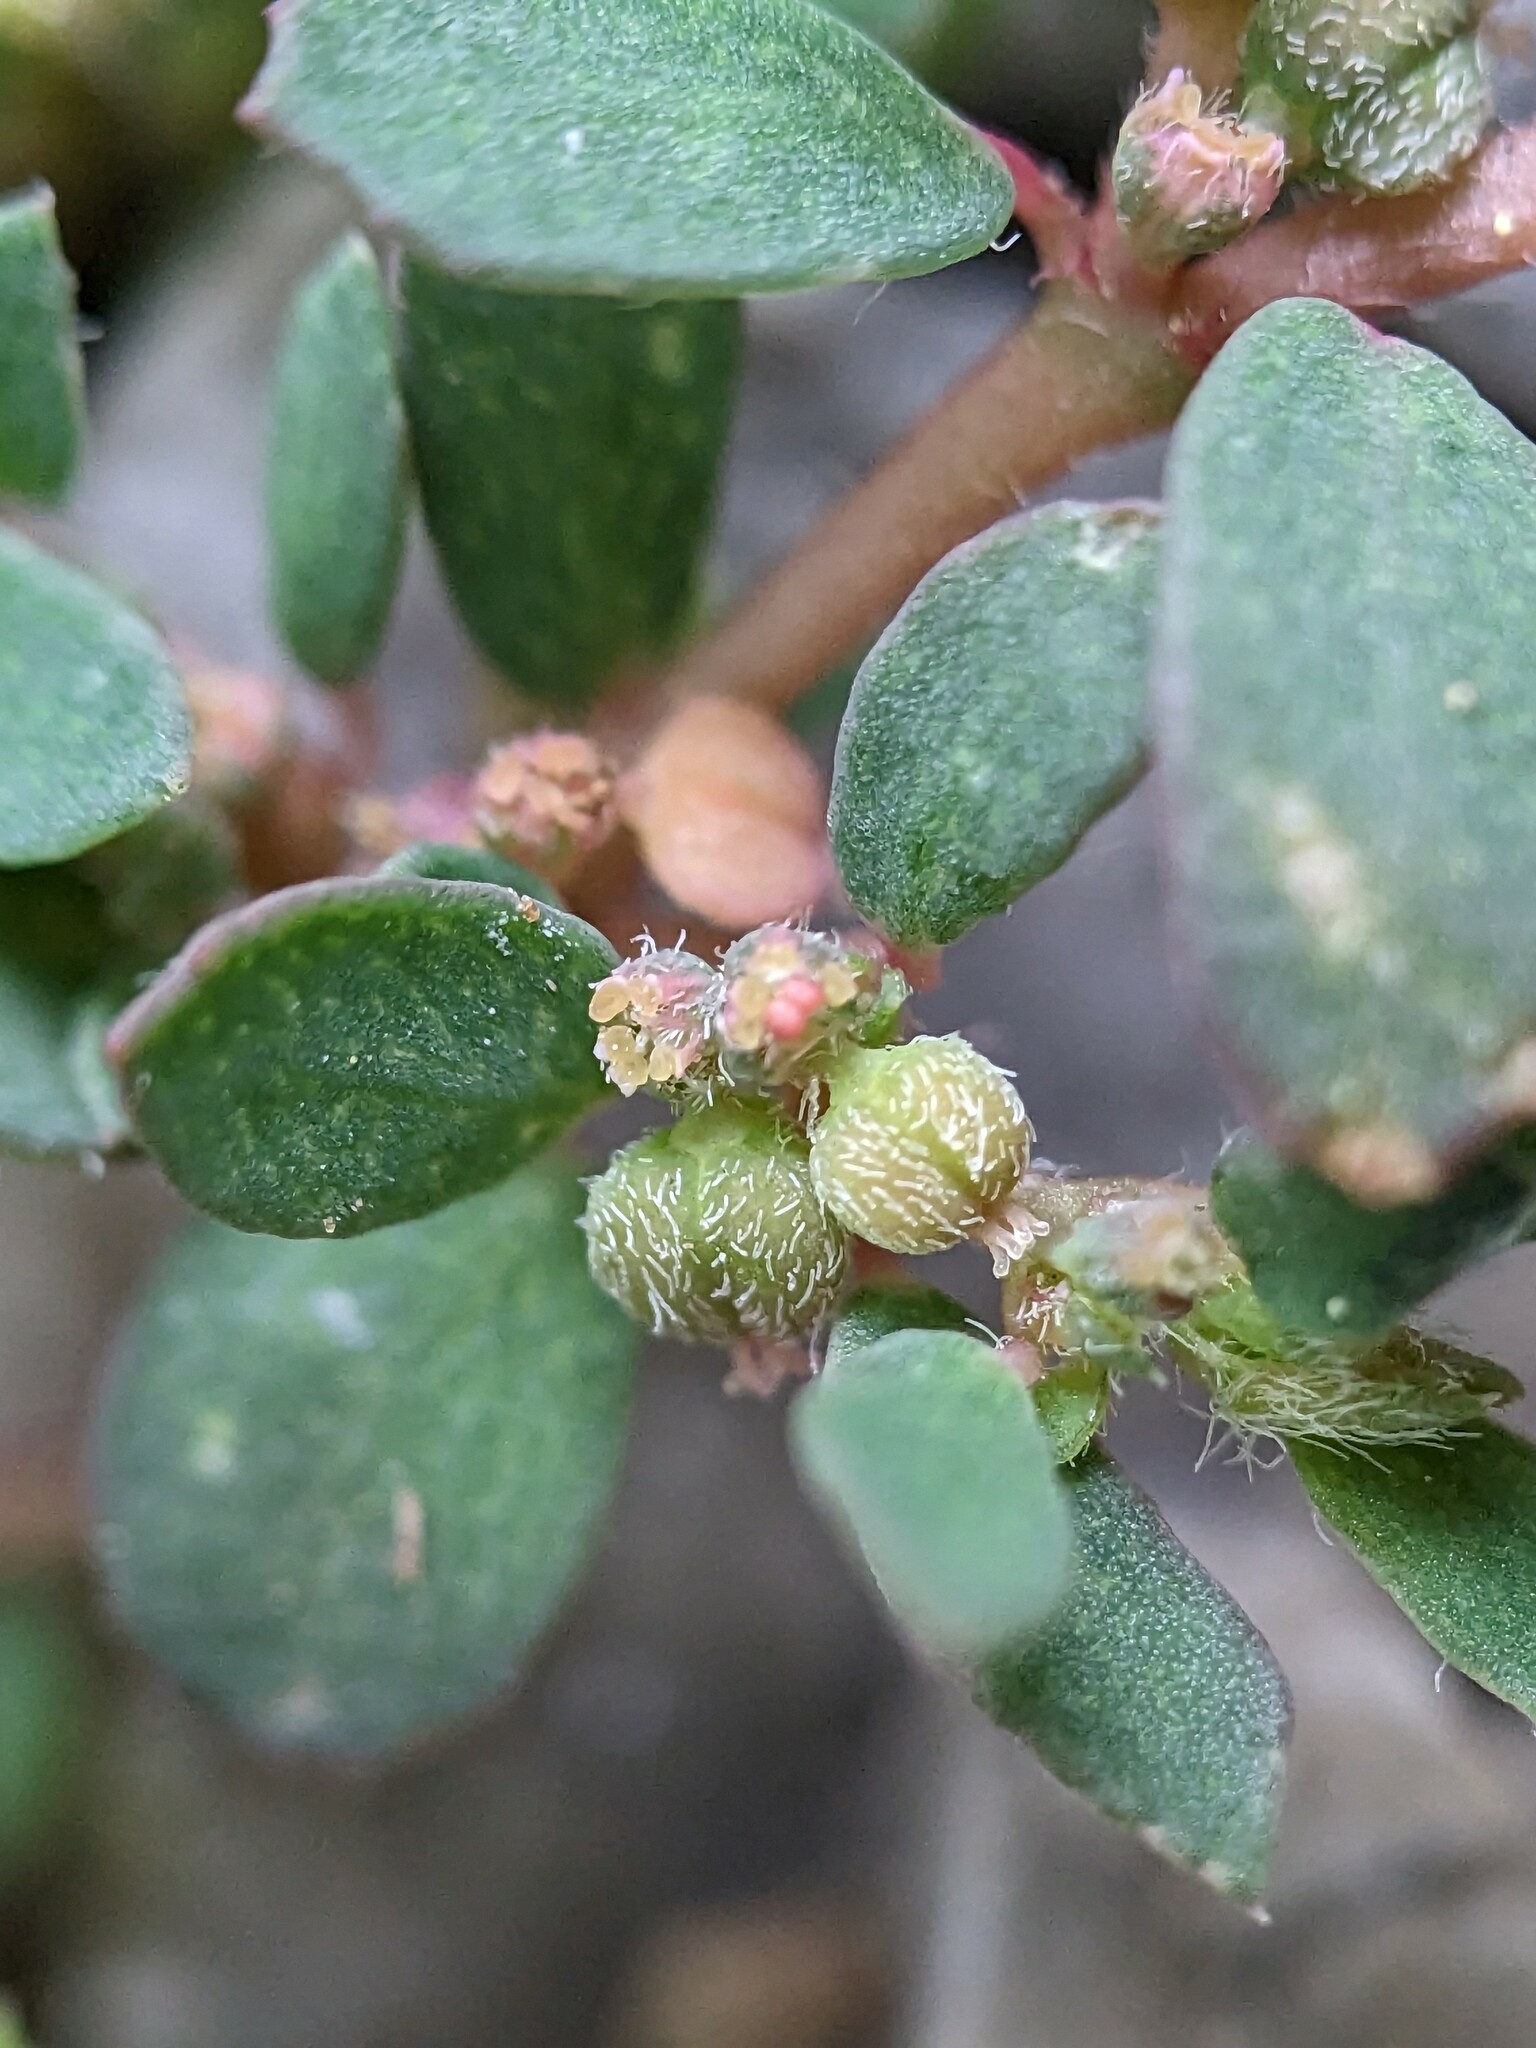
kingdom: Plantae
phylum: Tracheophyta
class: Magnoliopsida
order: Malpighiales
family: Euphorbiaceae
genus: Euphorbia
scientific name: Euphorbia maculata
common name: Spotted spurge
